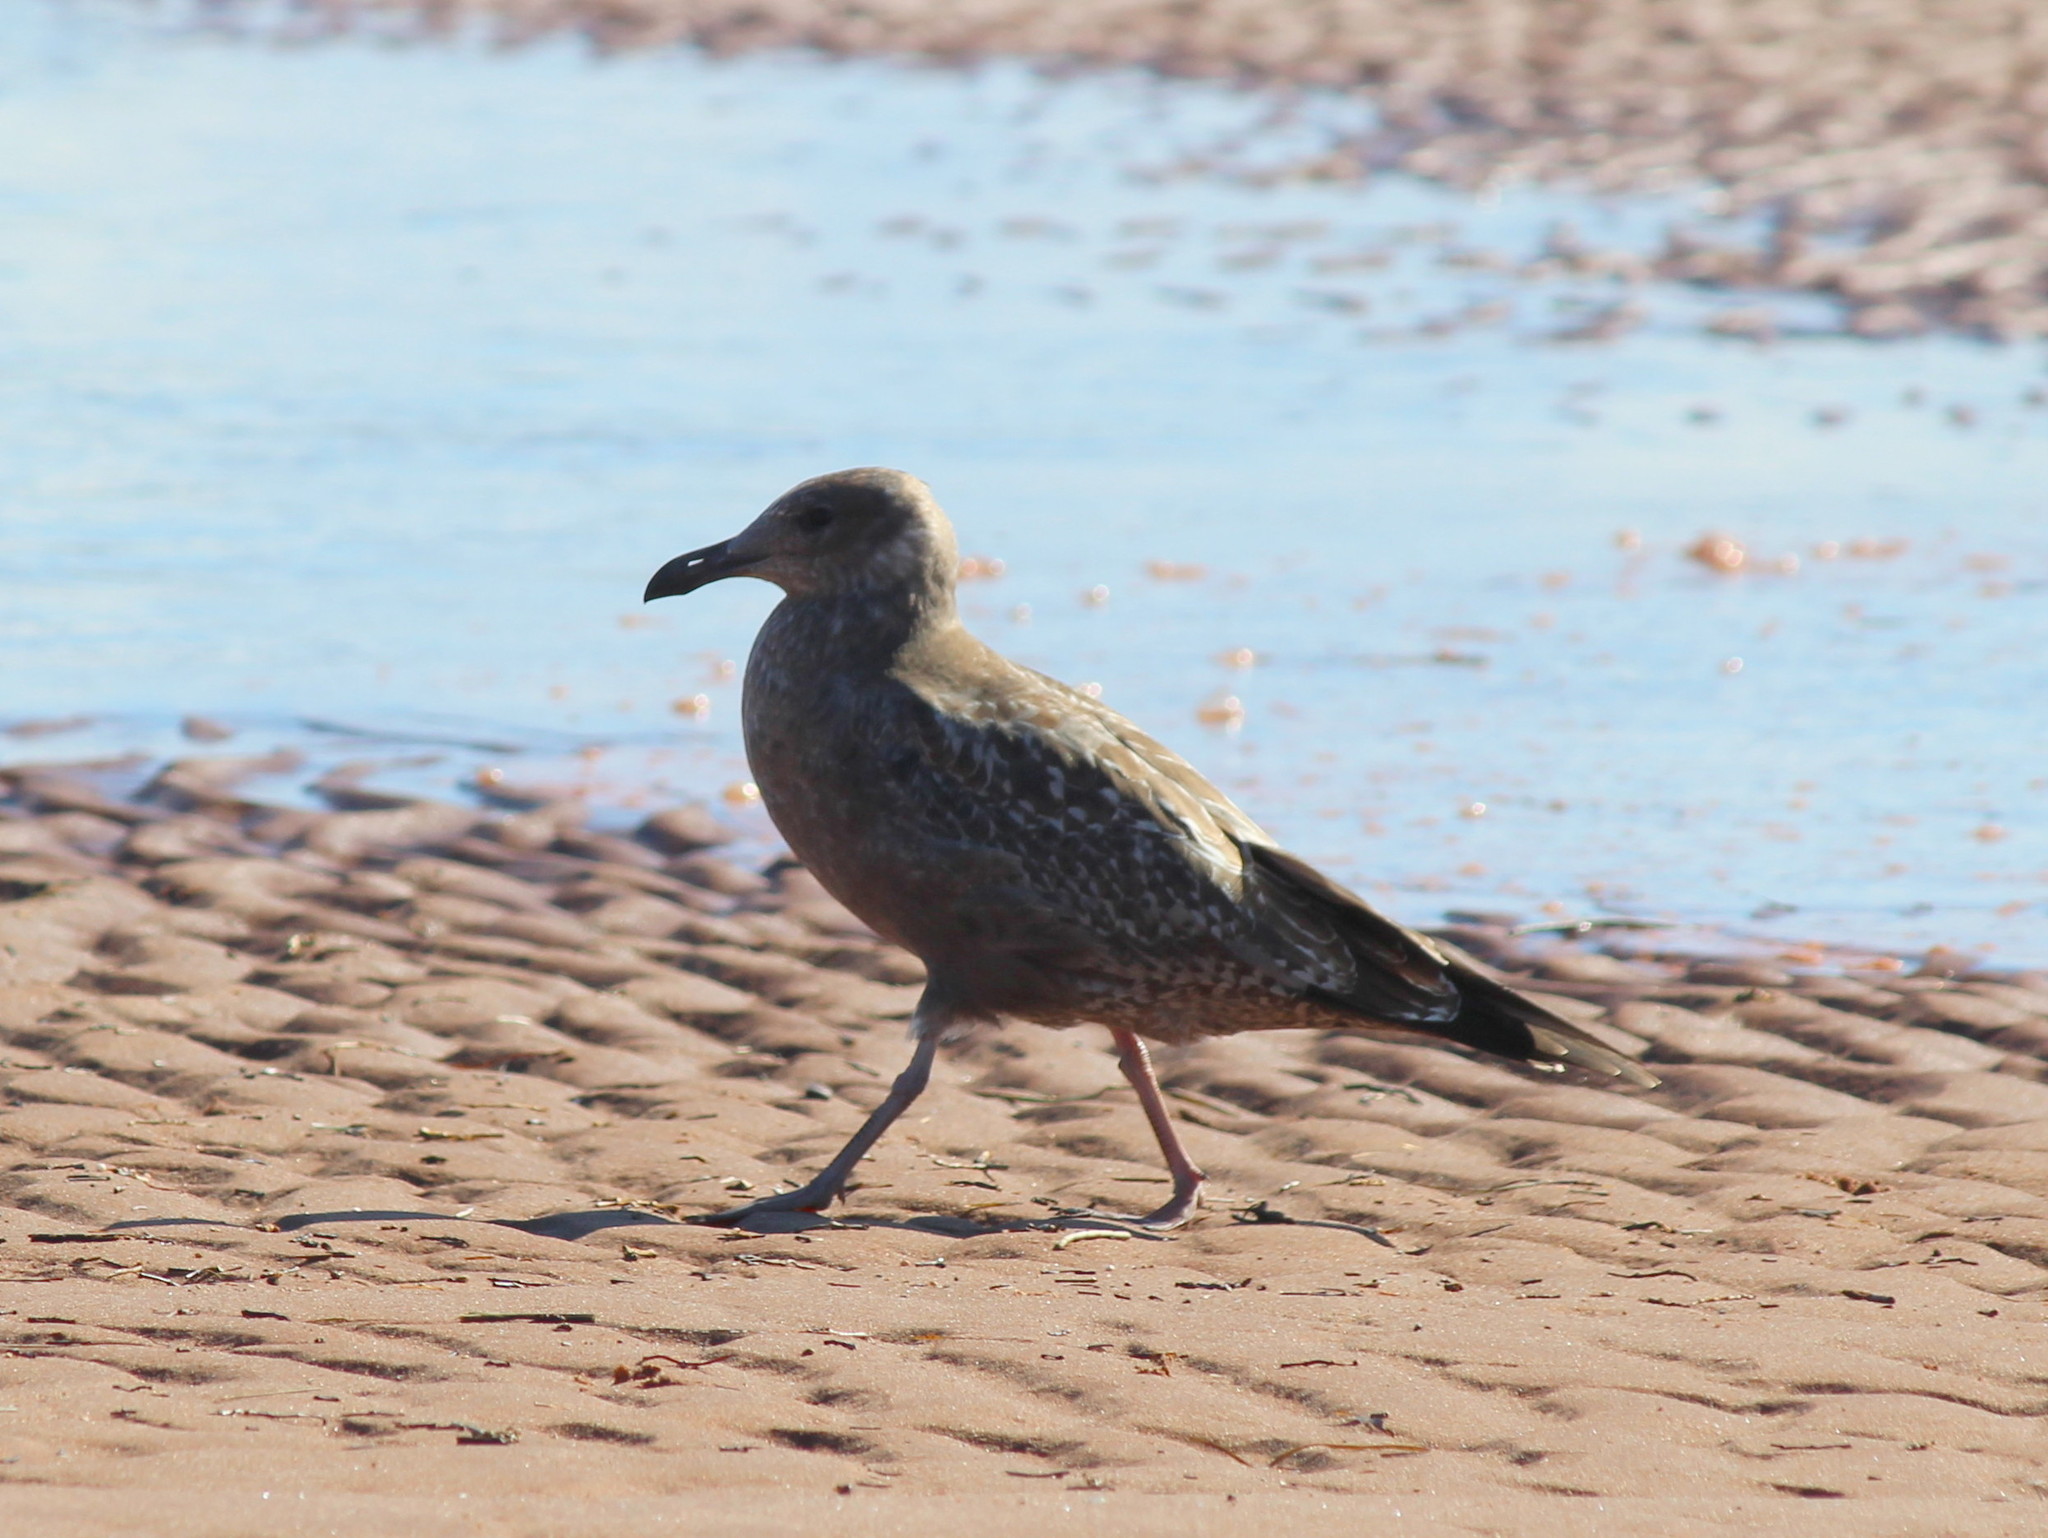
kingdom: Animalia
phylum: Chordata
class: Aves
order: Charadriiformes
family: Laridae
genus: Larus
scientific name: Larus argentatus
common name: Herring gull
